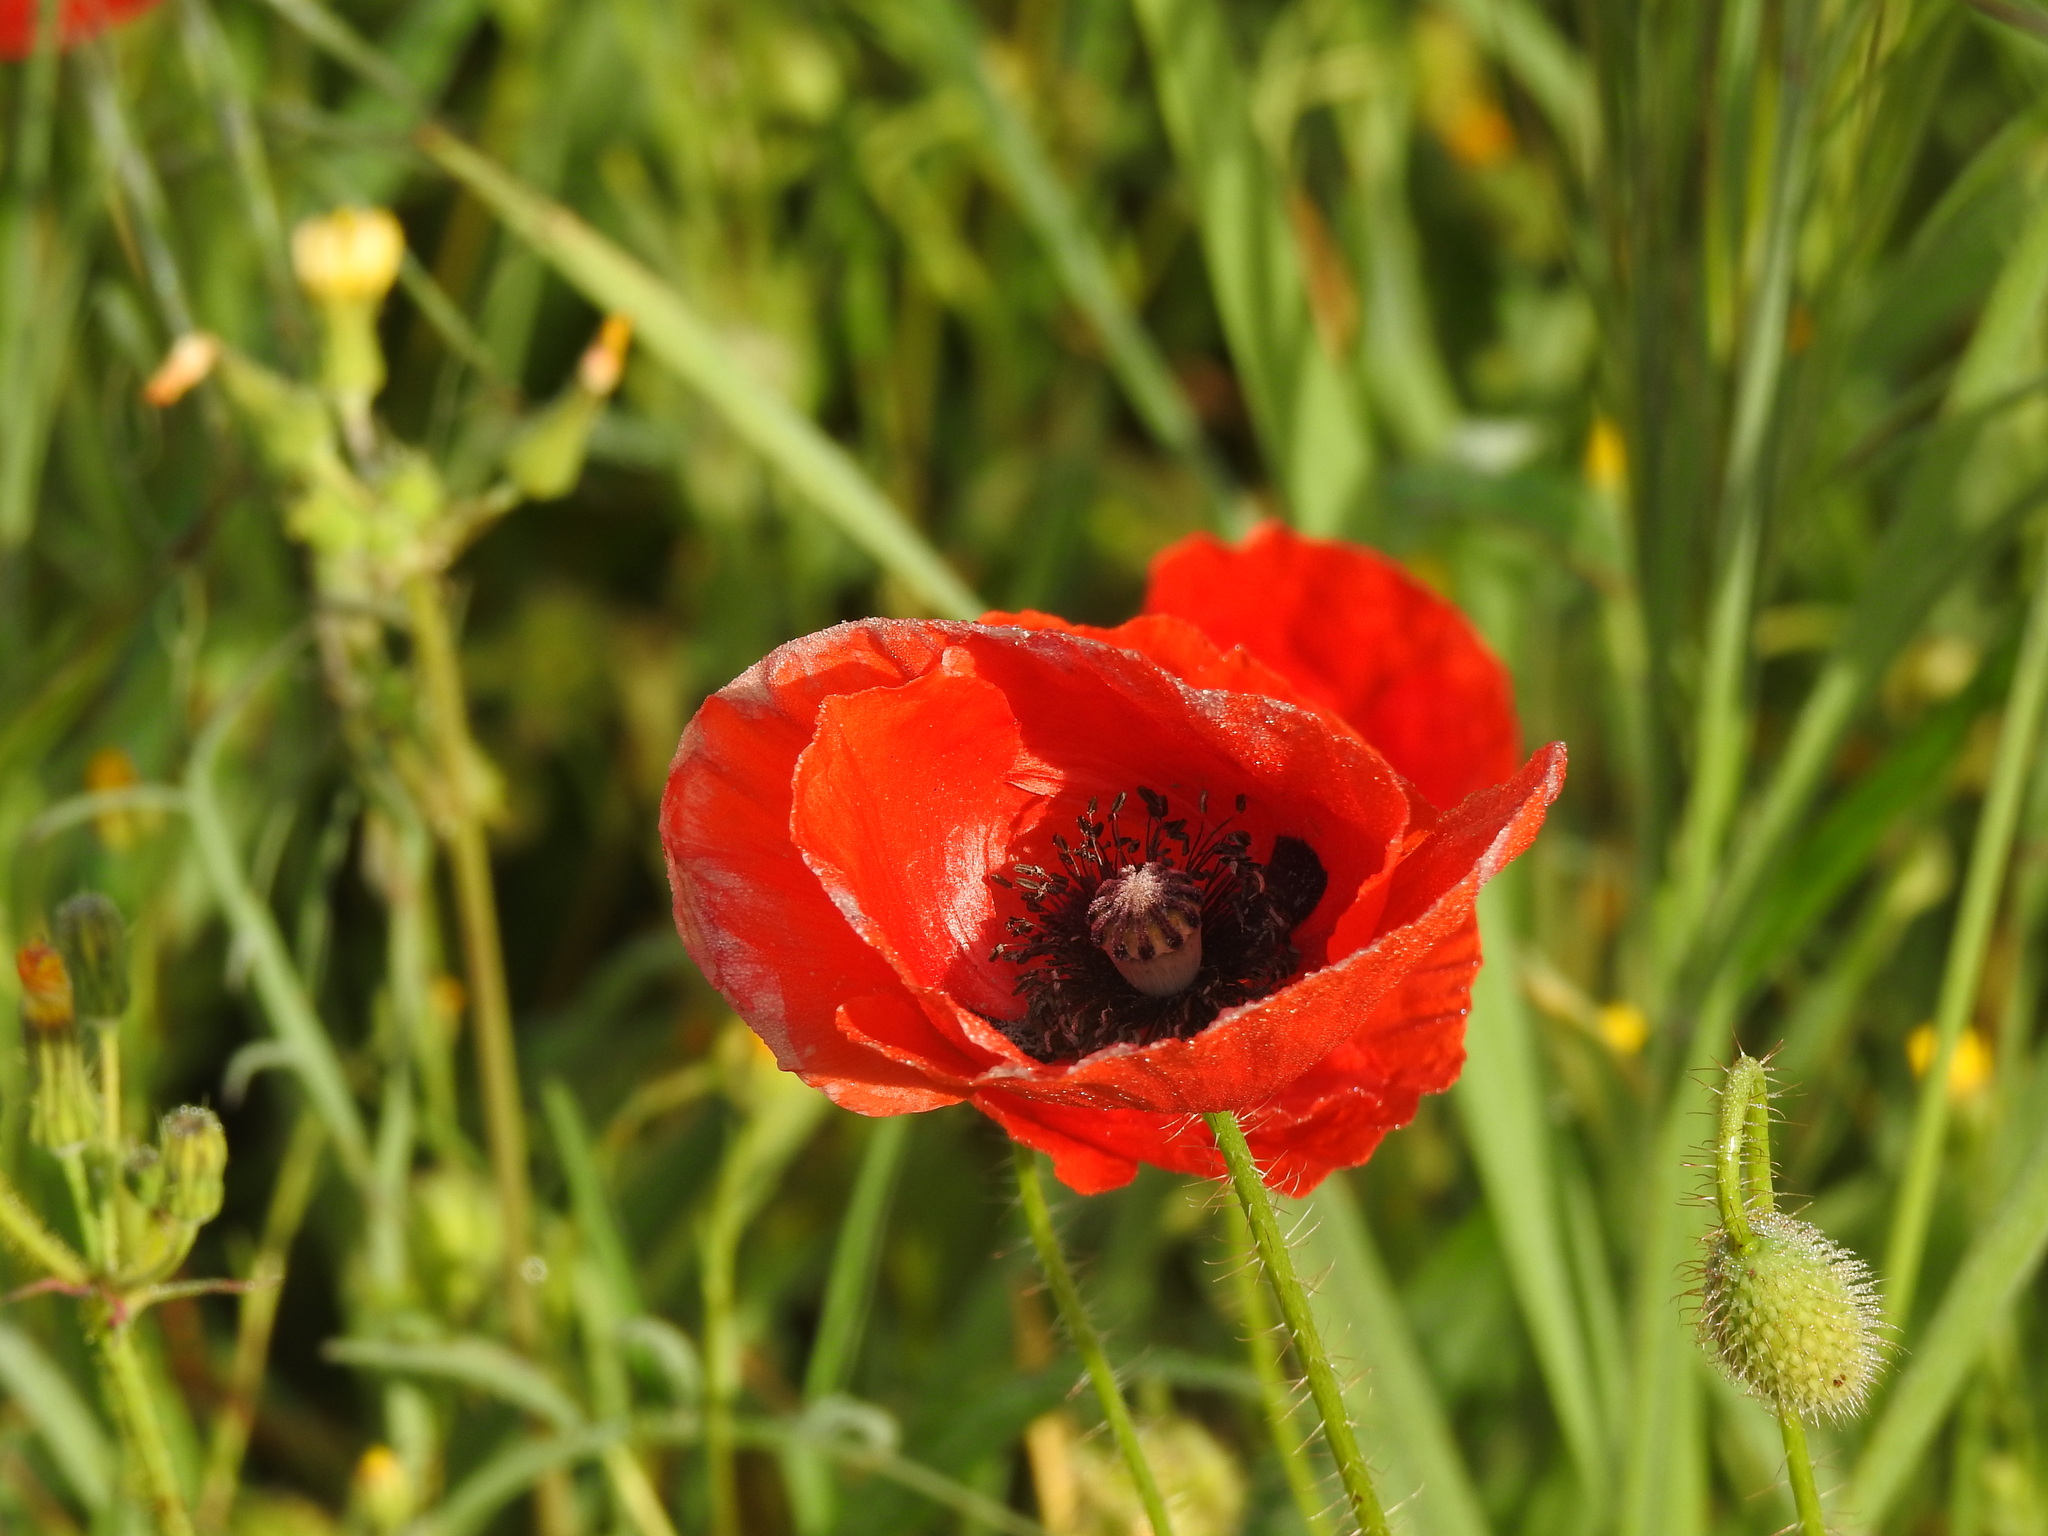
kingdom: Plantae
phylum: Tracheophyta
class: Magnoliopsida
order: Ranunculales
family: Papaveraceae
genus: Papaver
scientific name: Papaver rhoeas
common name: Corn poppy
